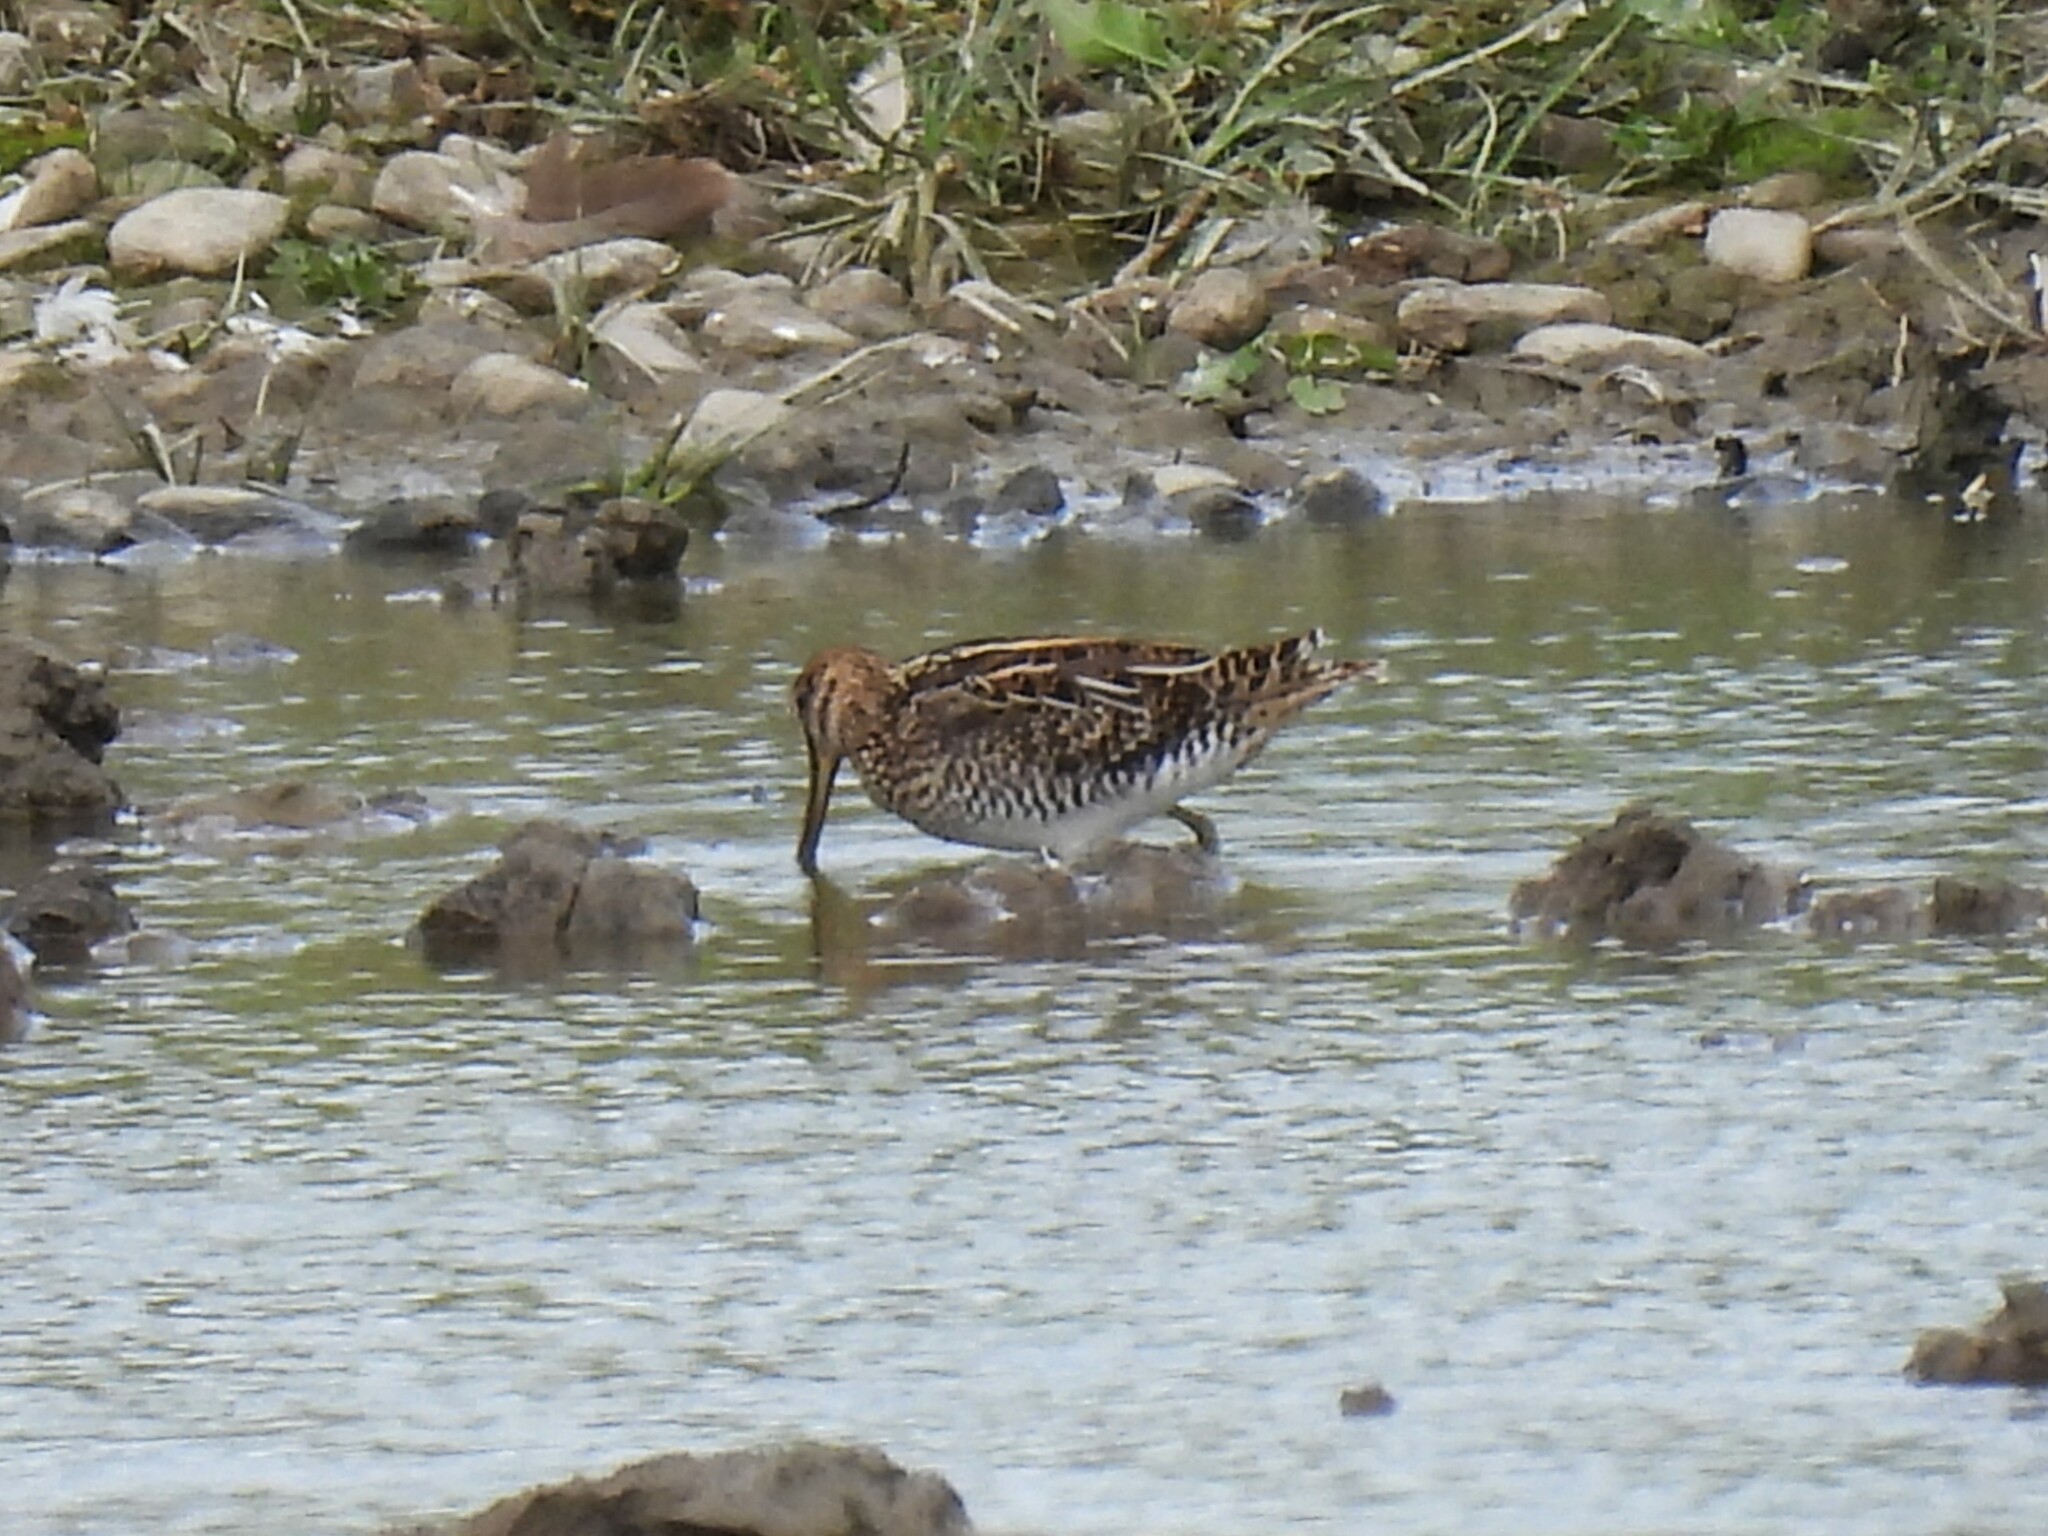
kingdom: Animalia
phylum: Chordata
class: Aves
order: Charadriiformes
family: Scolopacidae
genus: Gallinago
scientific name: Gallinago gallinago
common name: Common snipe
